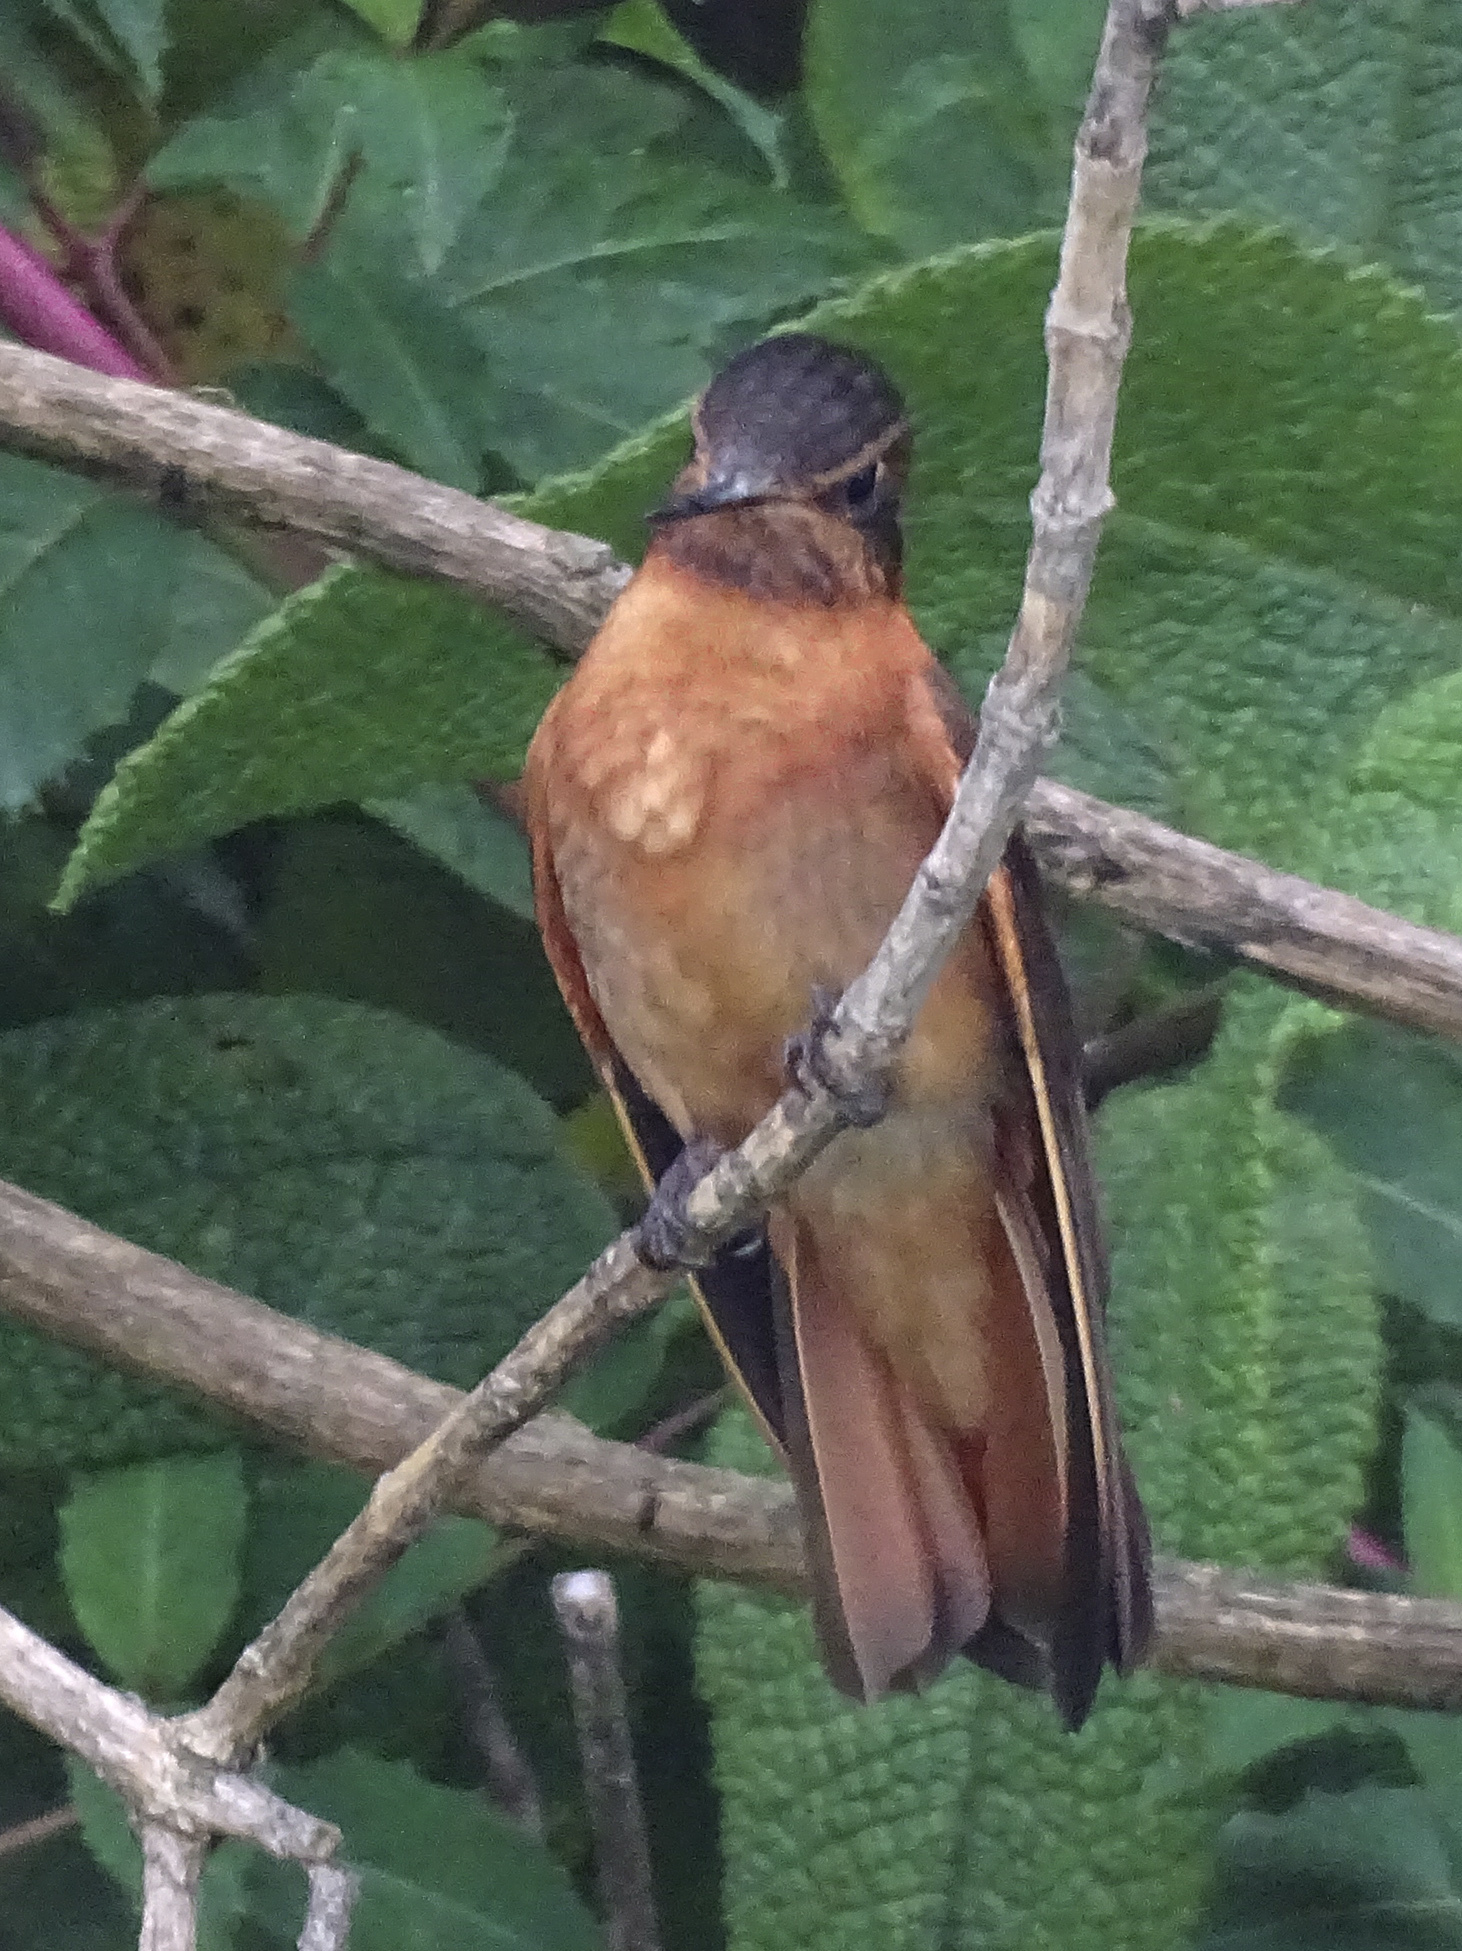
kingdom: Animalia
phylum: Chordata
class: Aves
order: Apodiformes
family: Trochilidae
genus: Aglaeactis
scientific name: Aglaeactis cupripennis
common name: Shining sunbeam
